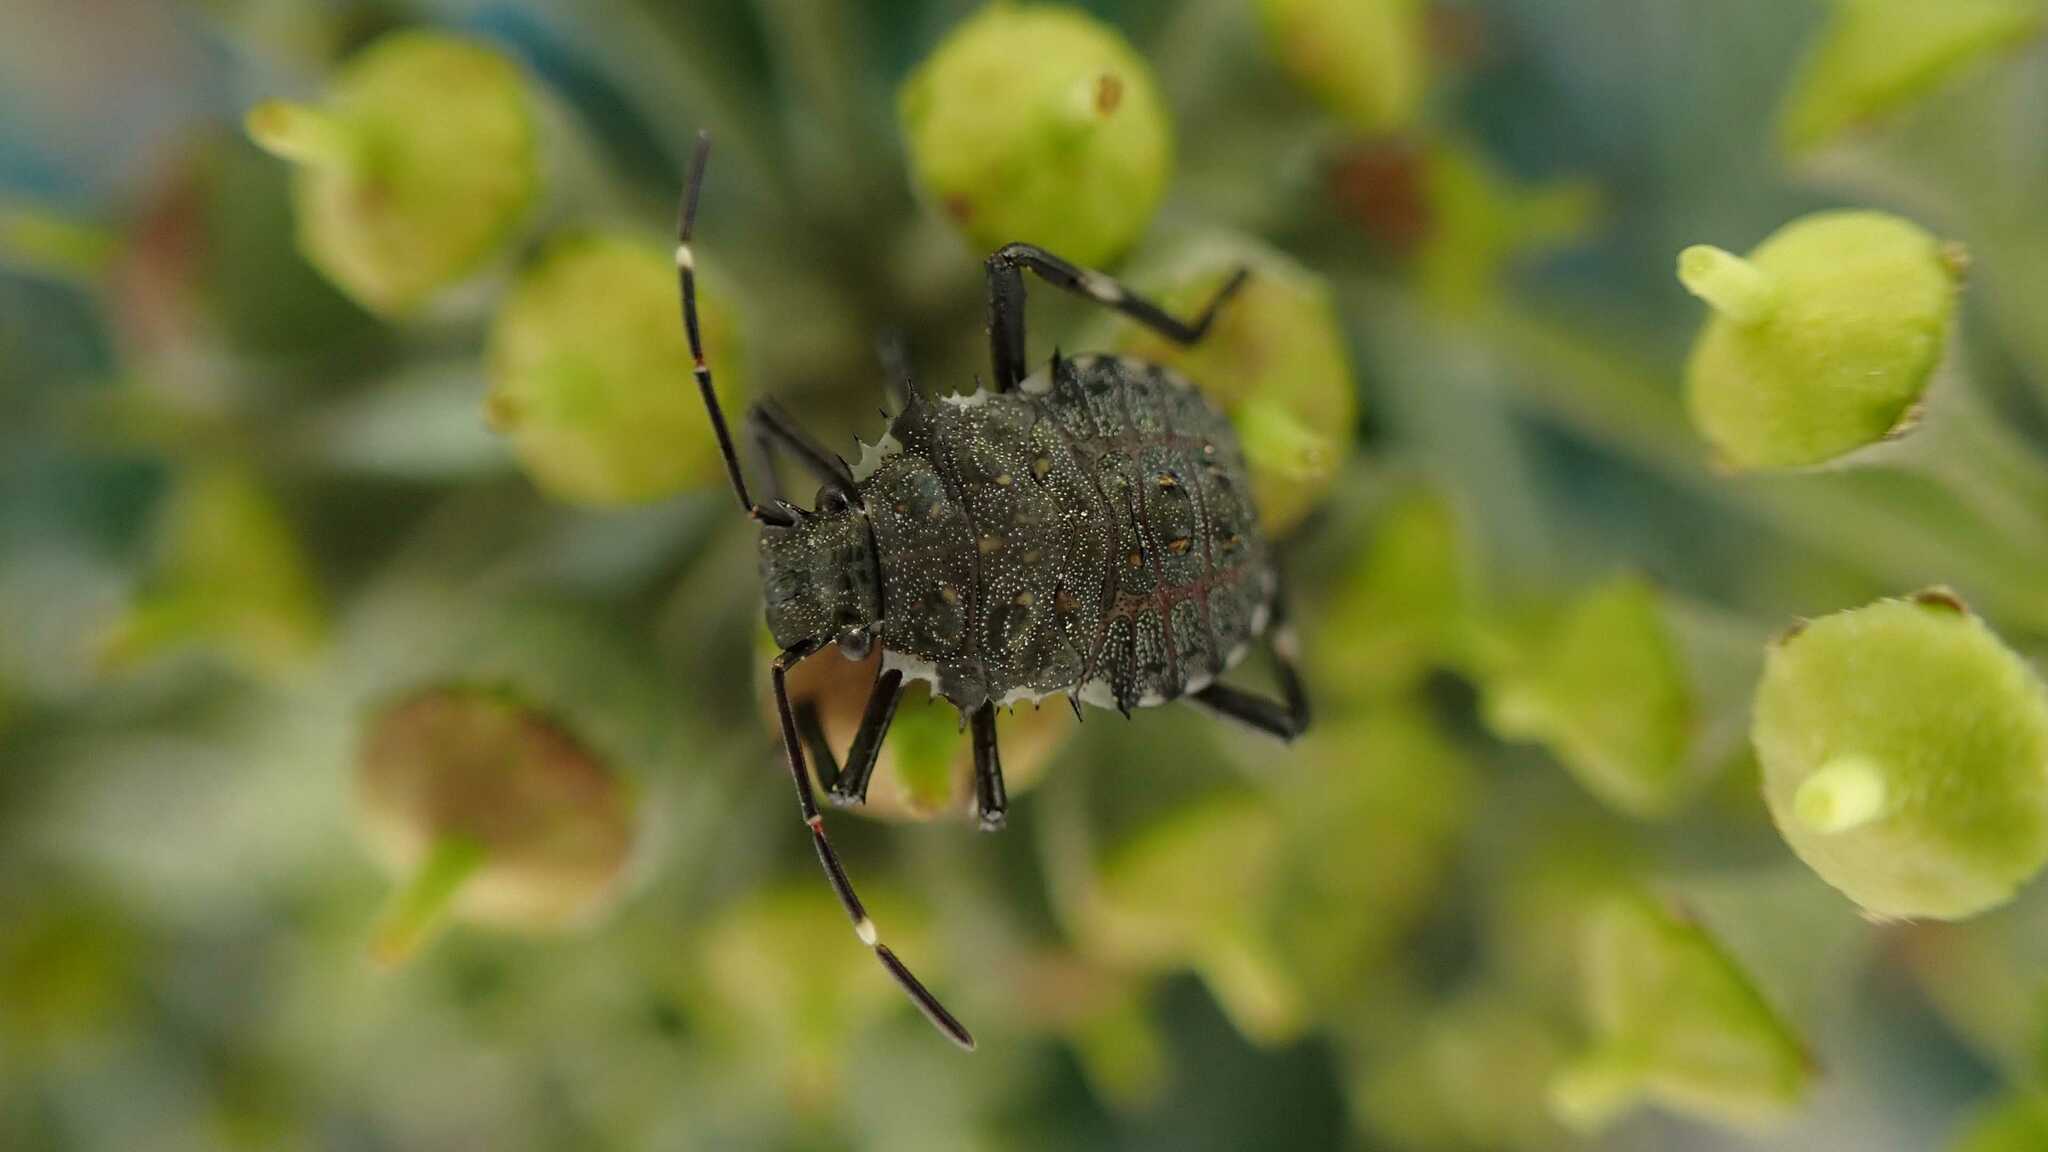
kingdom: Animalia
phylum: Arthropoda
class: Insecta
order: Hemiptera
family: Pentatomidae
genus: Halyomorpha
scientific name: Halyomorpha halys
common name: Brown marmorated stink bug
